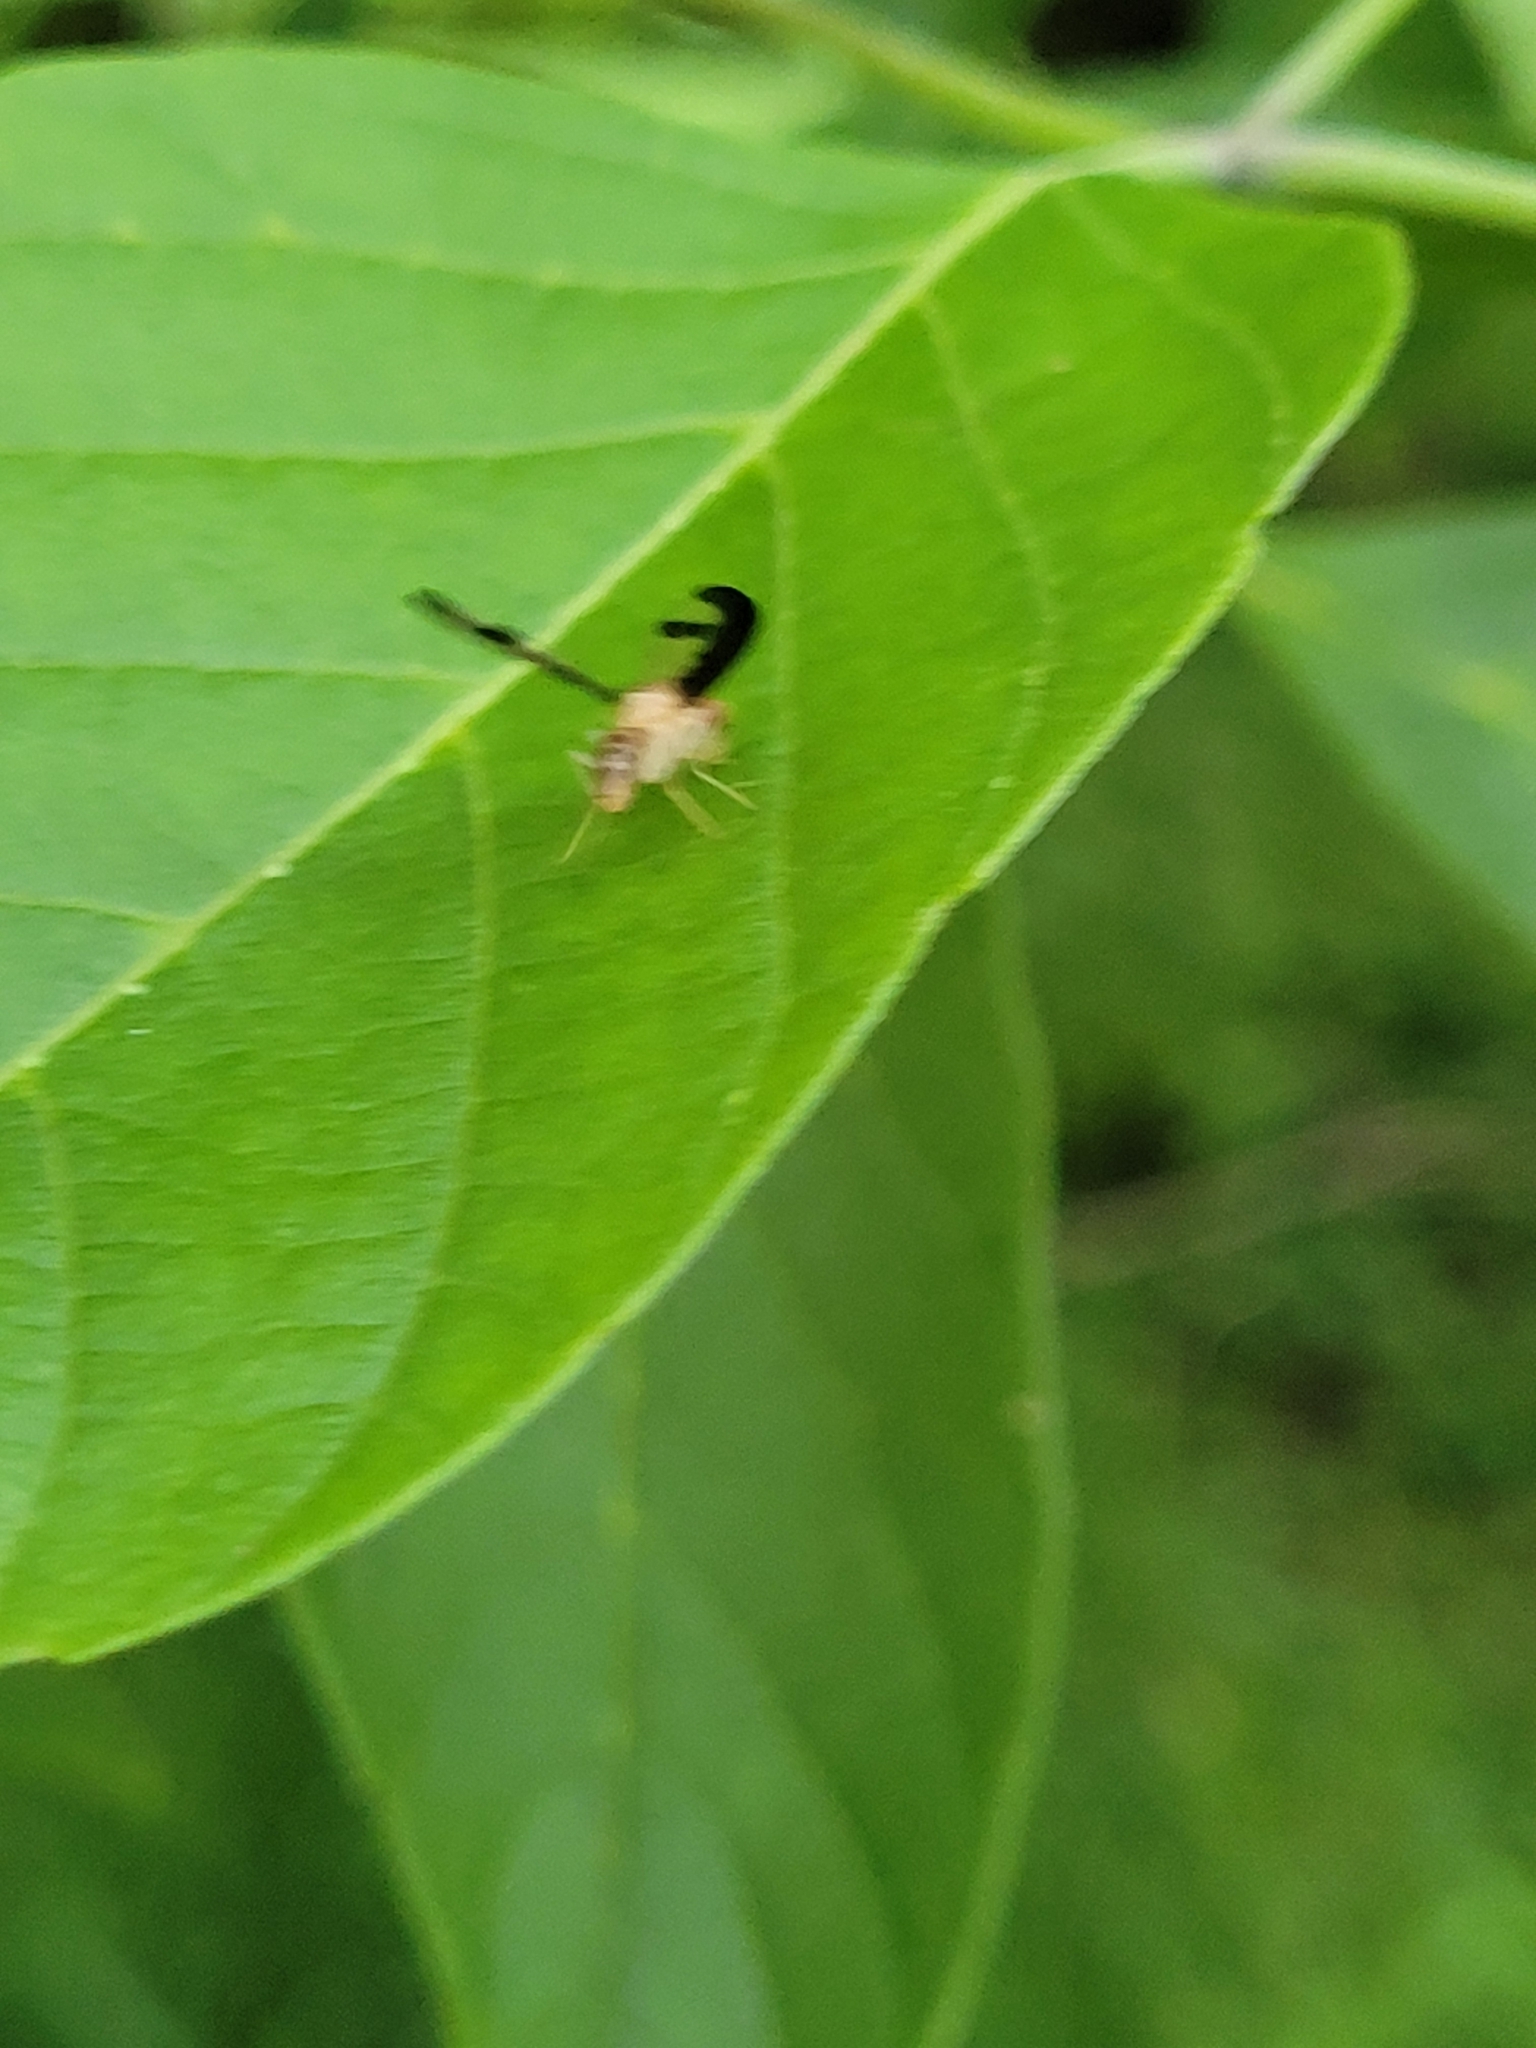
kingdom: Animalia
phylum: Arthropoda
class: Insecta
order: Diptera
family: Pallopteridae
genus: Toxonevra
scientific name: Toxonevra superba
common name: Antlered flutter fly
